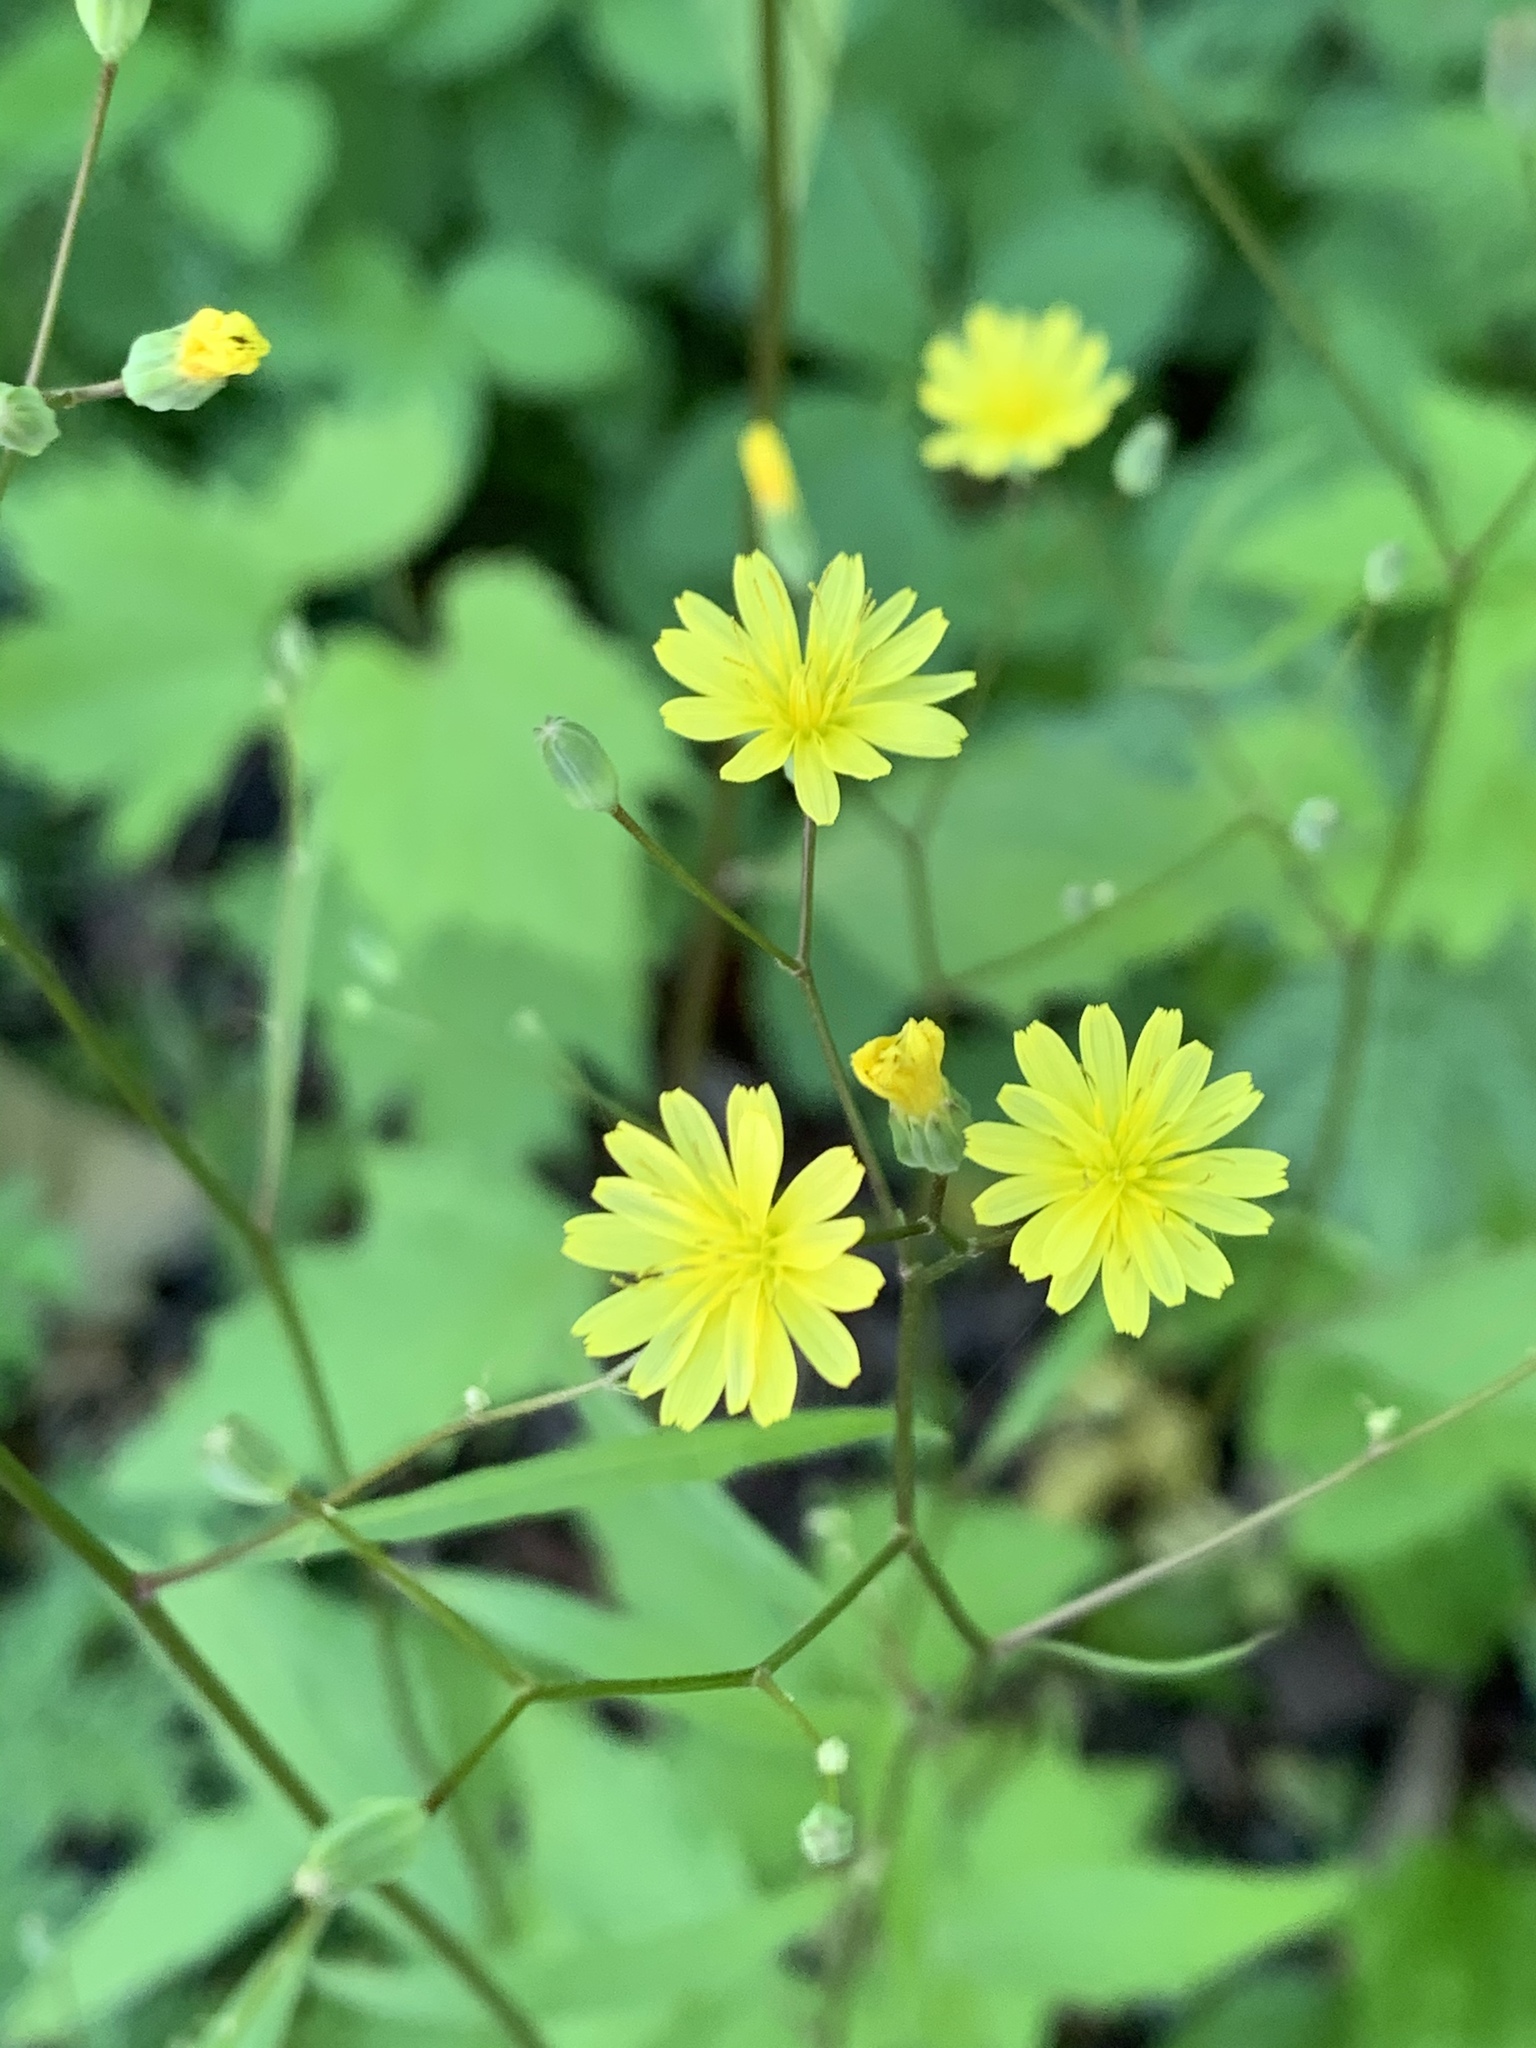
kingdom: Plantae
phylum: Tracheophyta
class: Magnoliopsida
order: Asterales
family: Asteraceae
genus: Lapsana
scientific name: Lapsana communis
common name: Nipplewort
